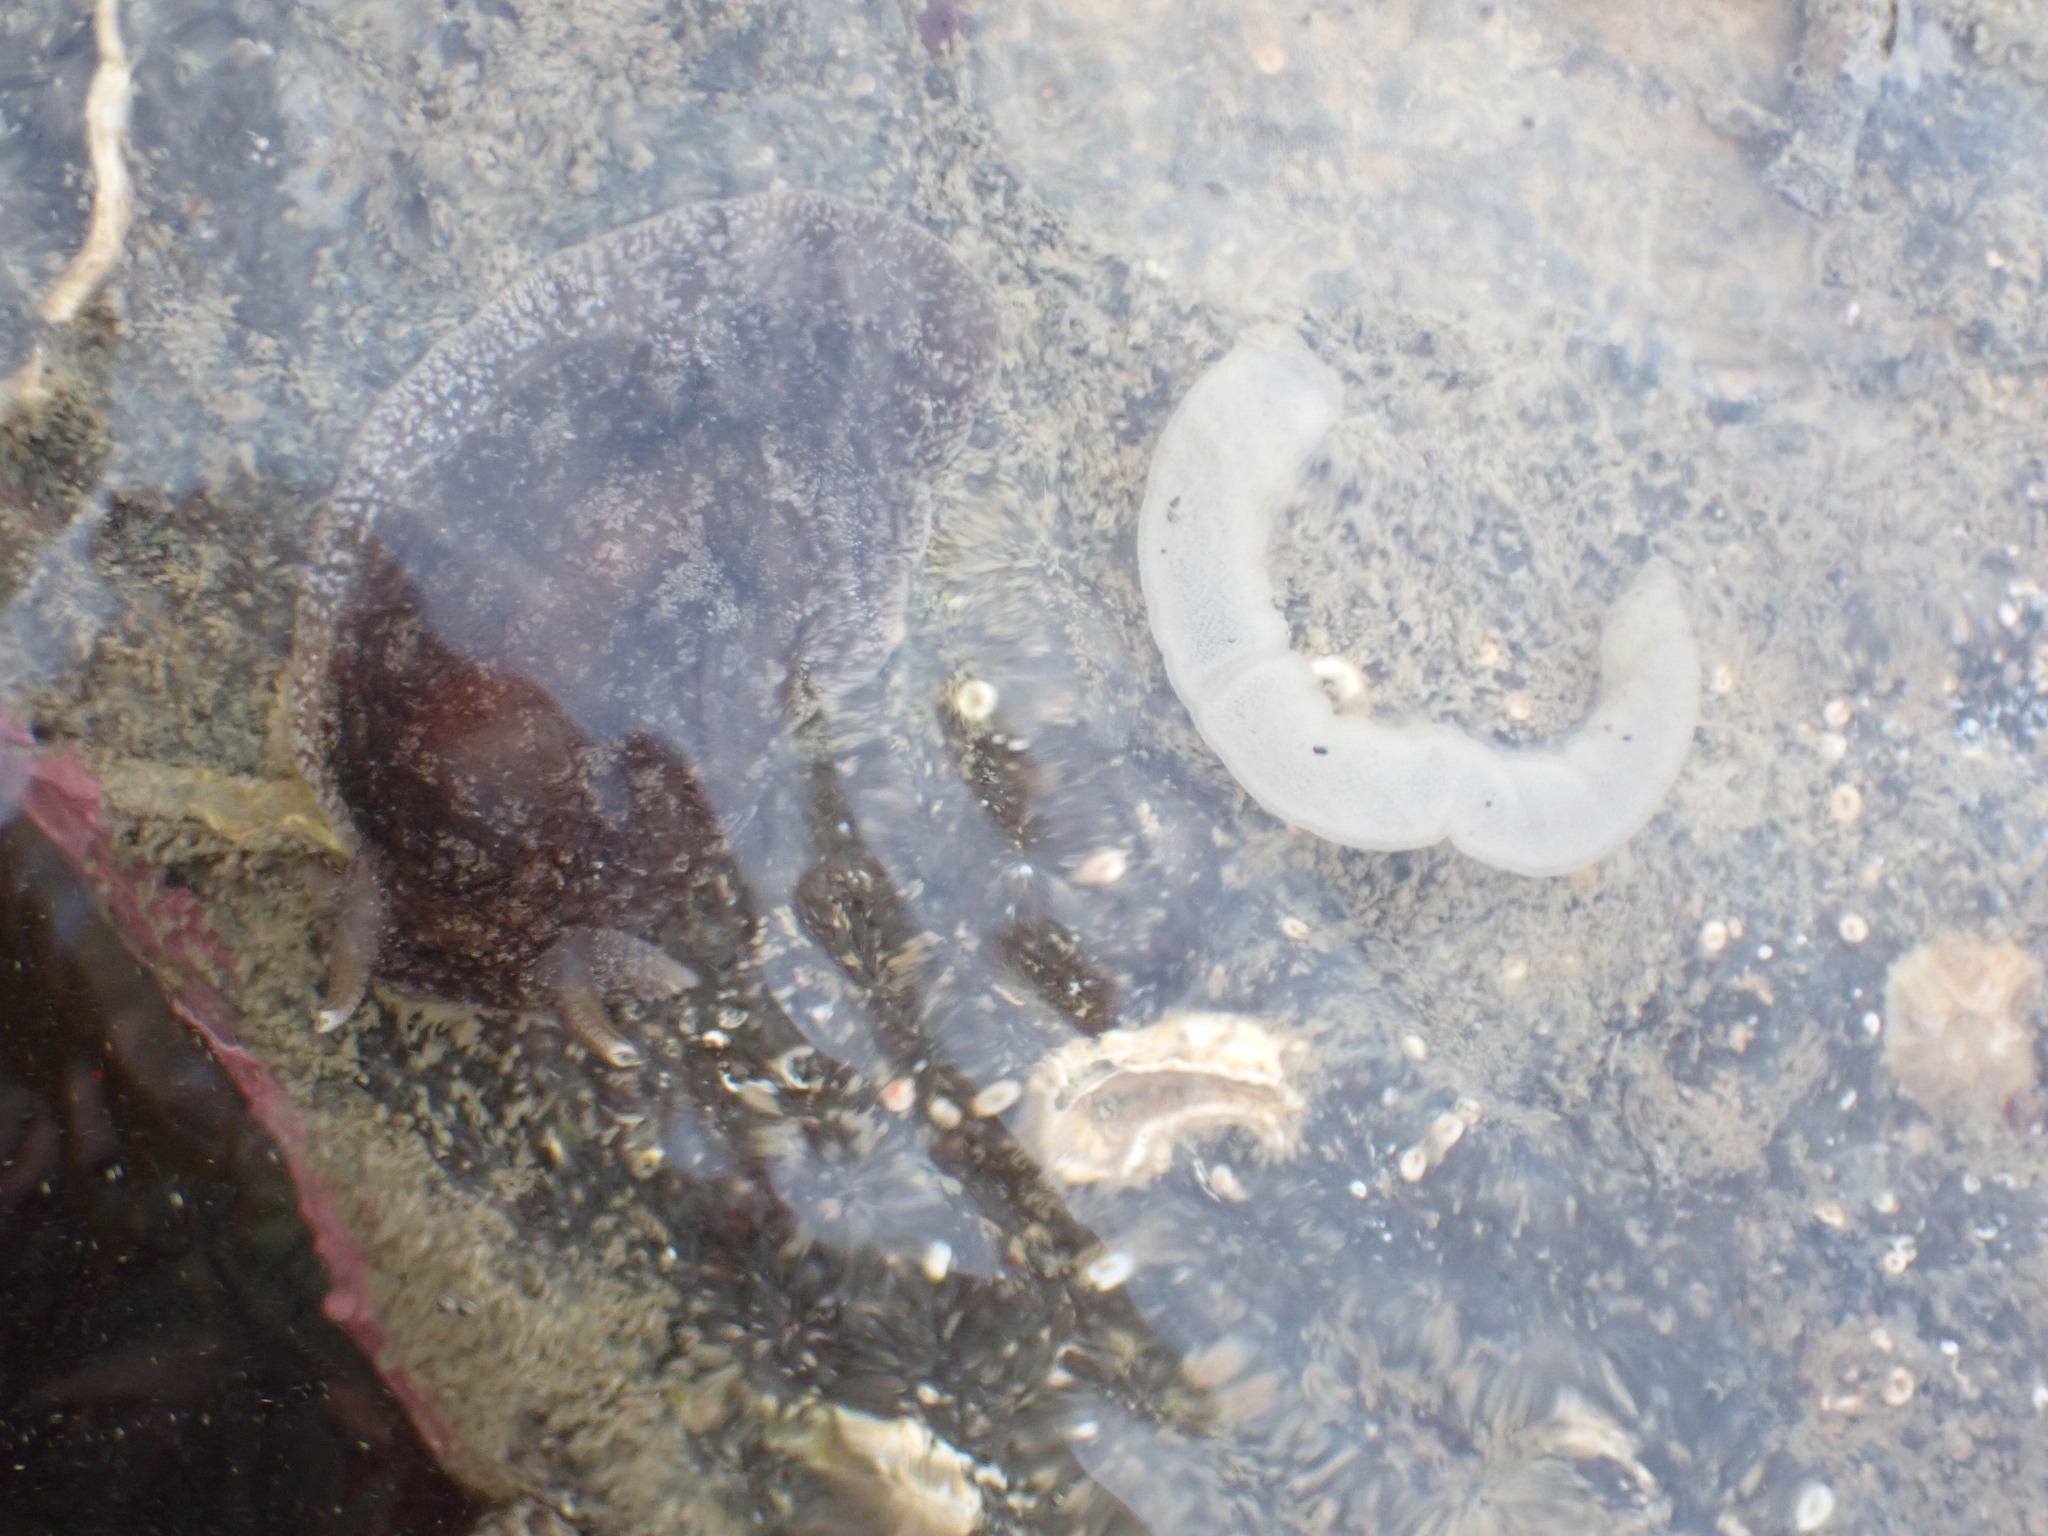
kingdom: Animalia
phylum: Mollusca
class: Gastropoda
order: Pleurobranchida
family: Pleurobranchaeidae
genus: Pleurobranchaea
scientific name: Pleurobranchaea maculata
